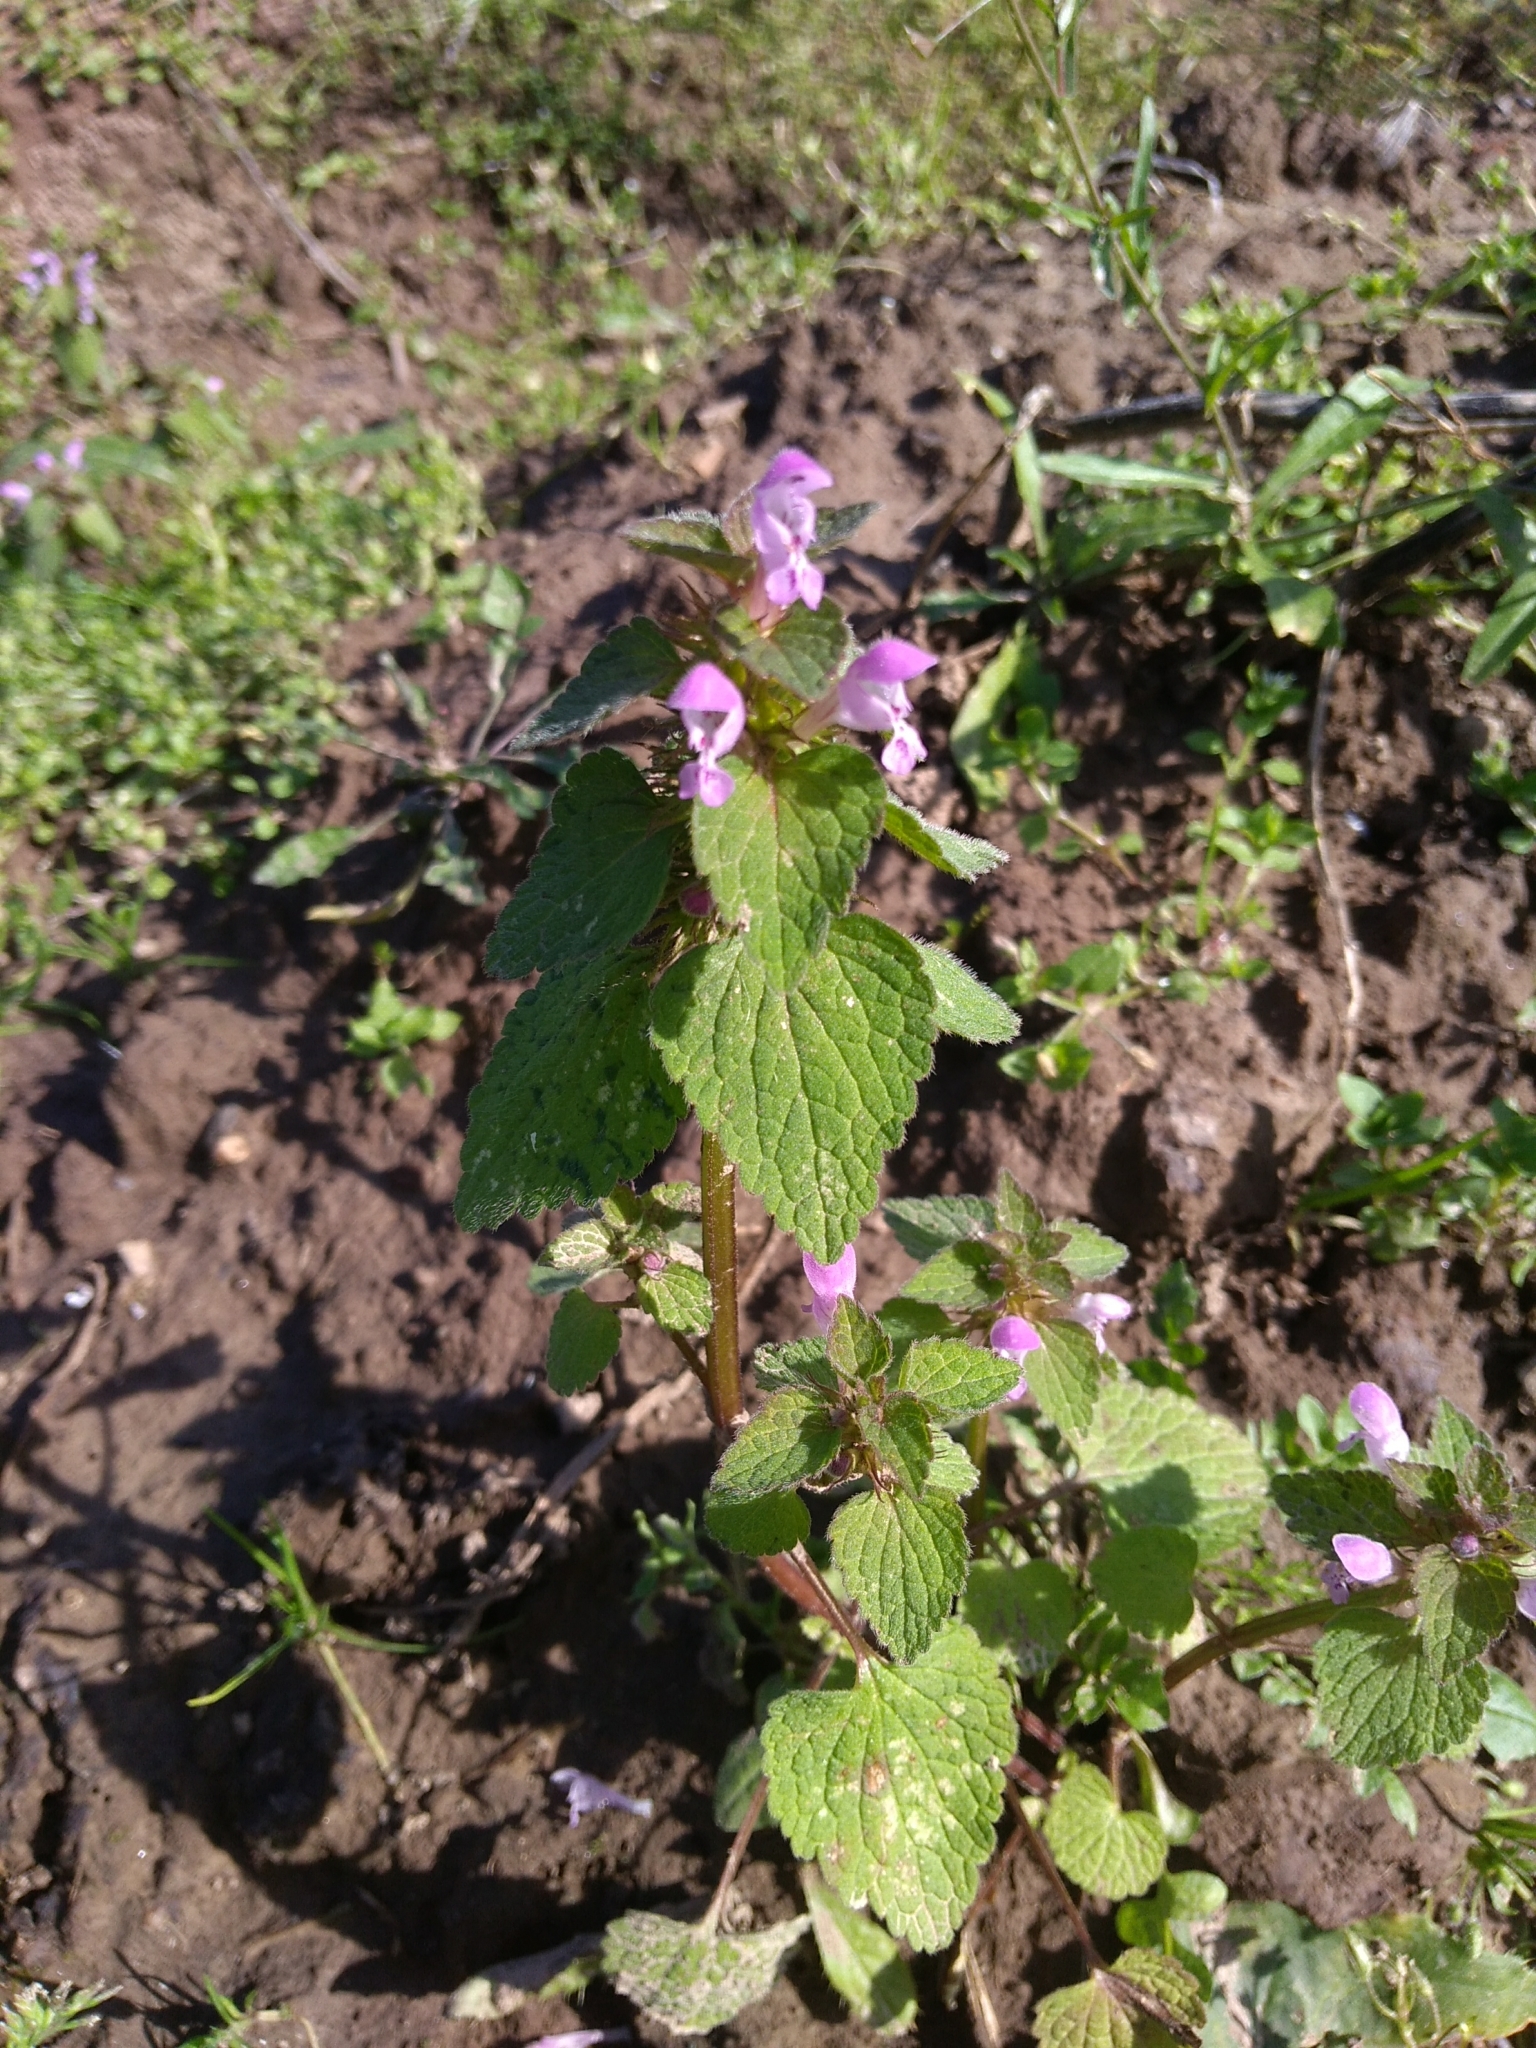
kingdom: Plantae
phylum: Tracheophyta
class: Magnoliopsida
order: Lamiales
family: Lamiaceae
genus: Lamium
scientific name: Lamium purpureum
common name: Red dead-nettle
